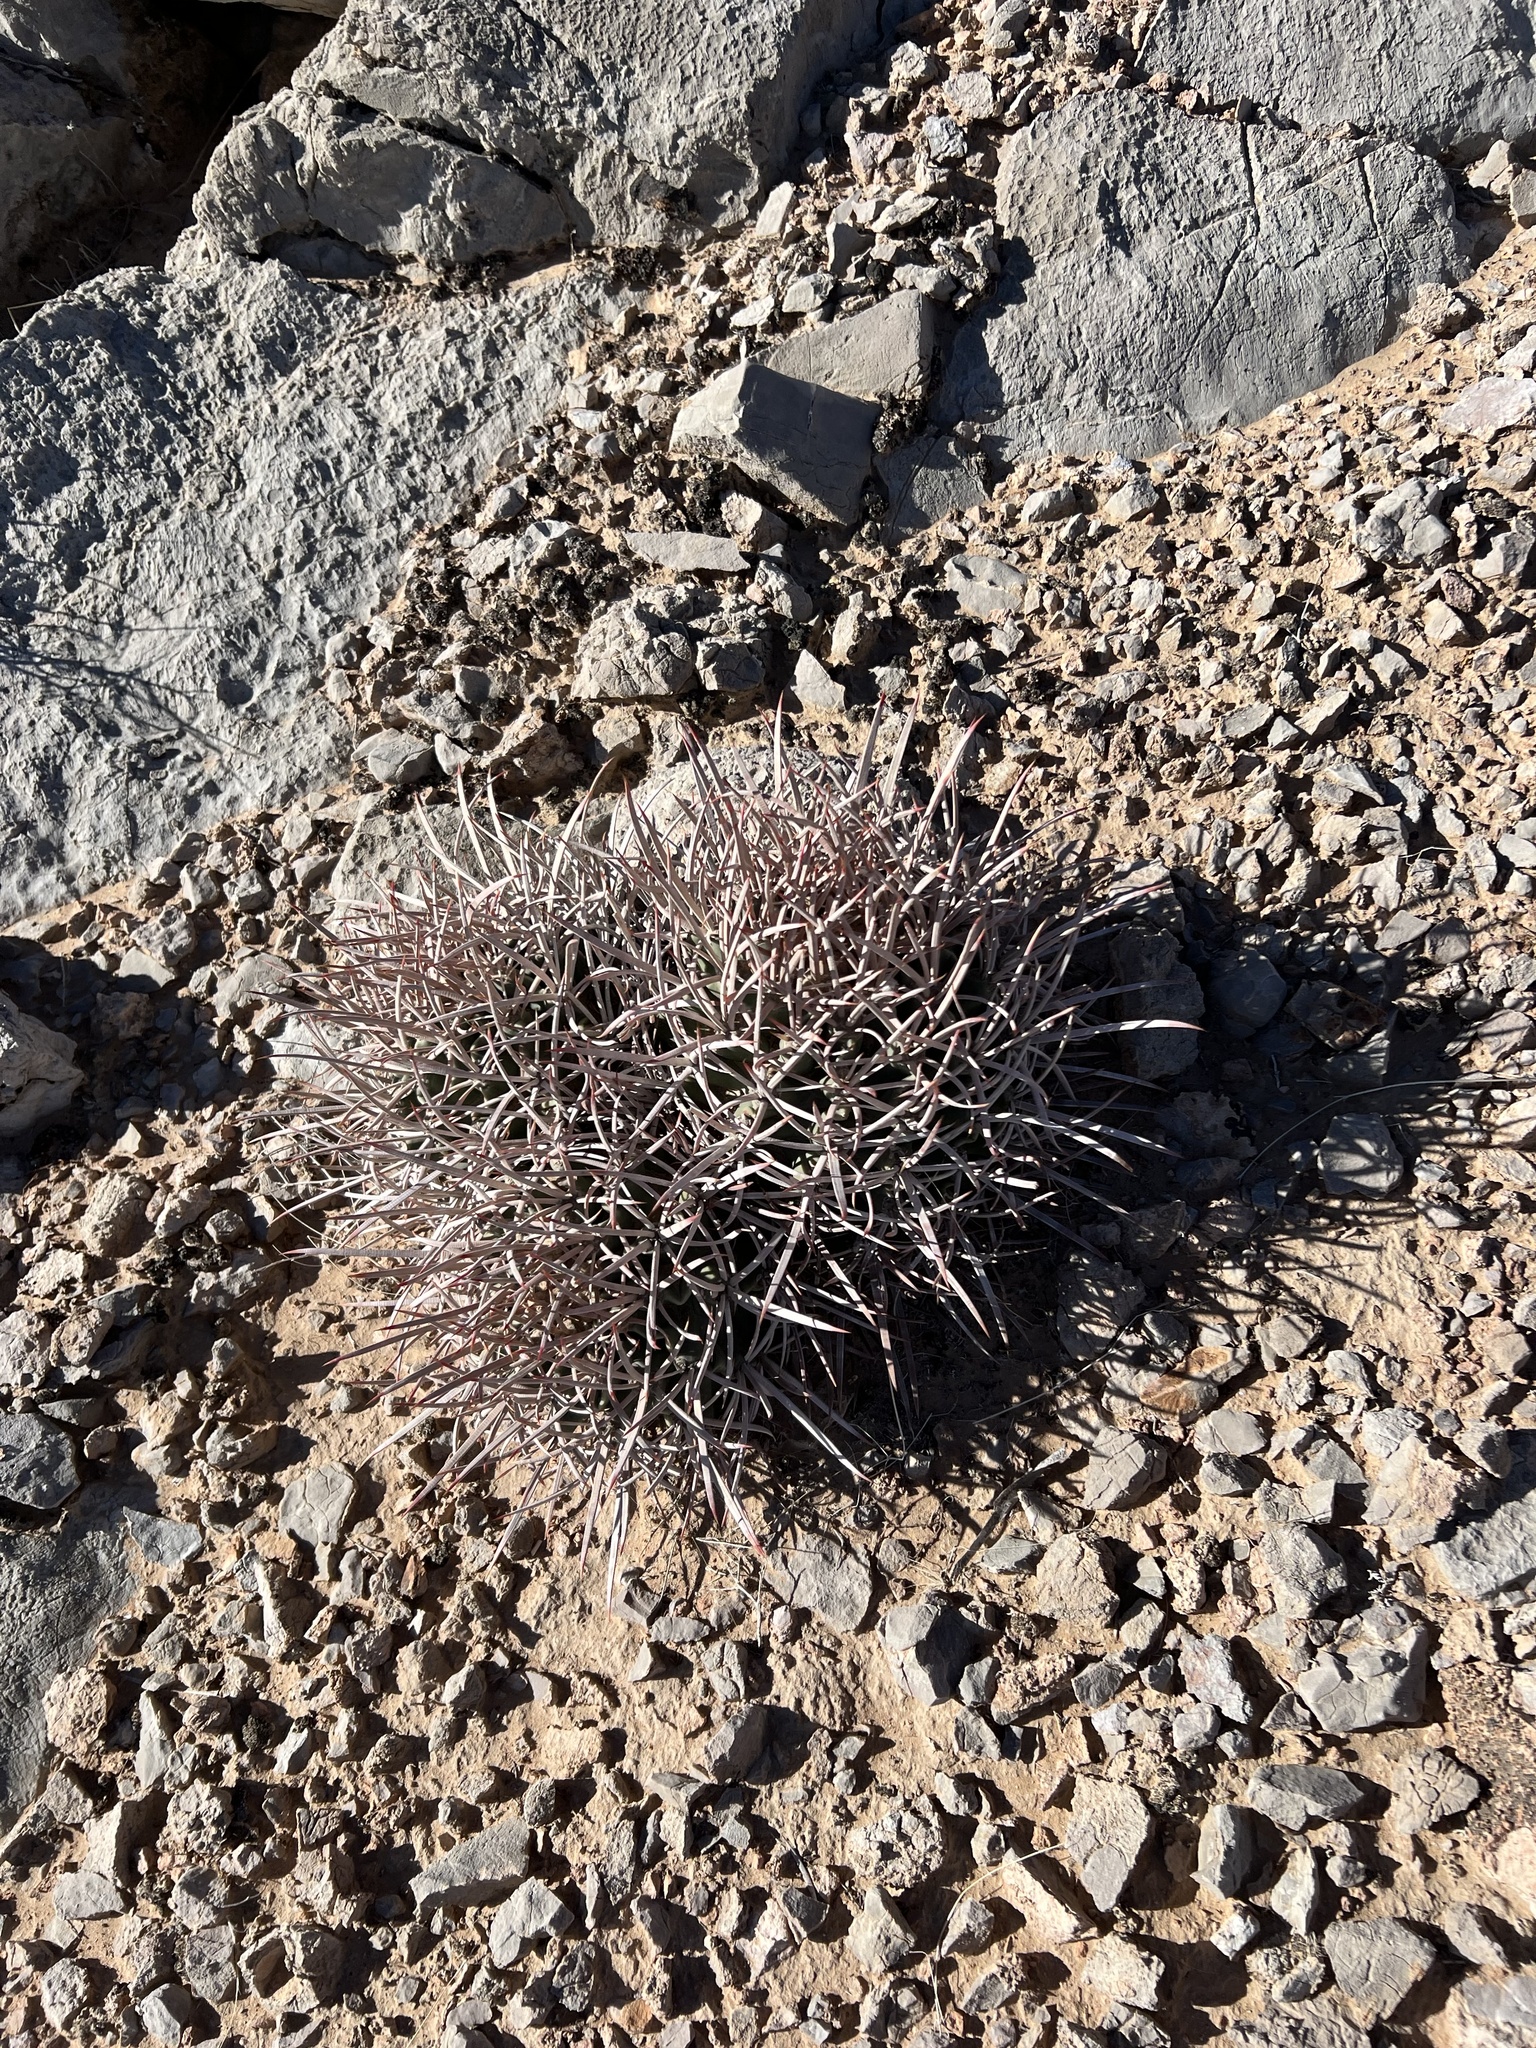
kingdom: Plantae
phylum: Tracheophyta
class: Magnoliopsida
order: Caryophyllales
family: Cactaceae
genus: Echinocactus
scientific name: Echinocactus polycephalus
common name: Cottontop cactus
